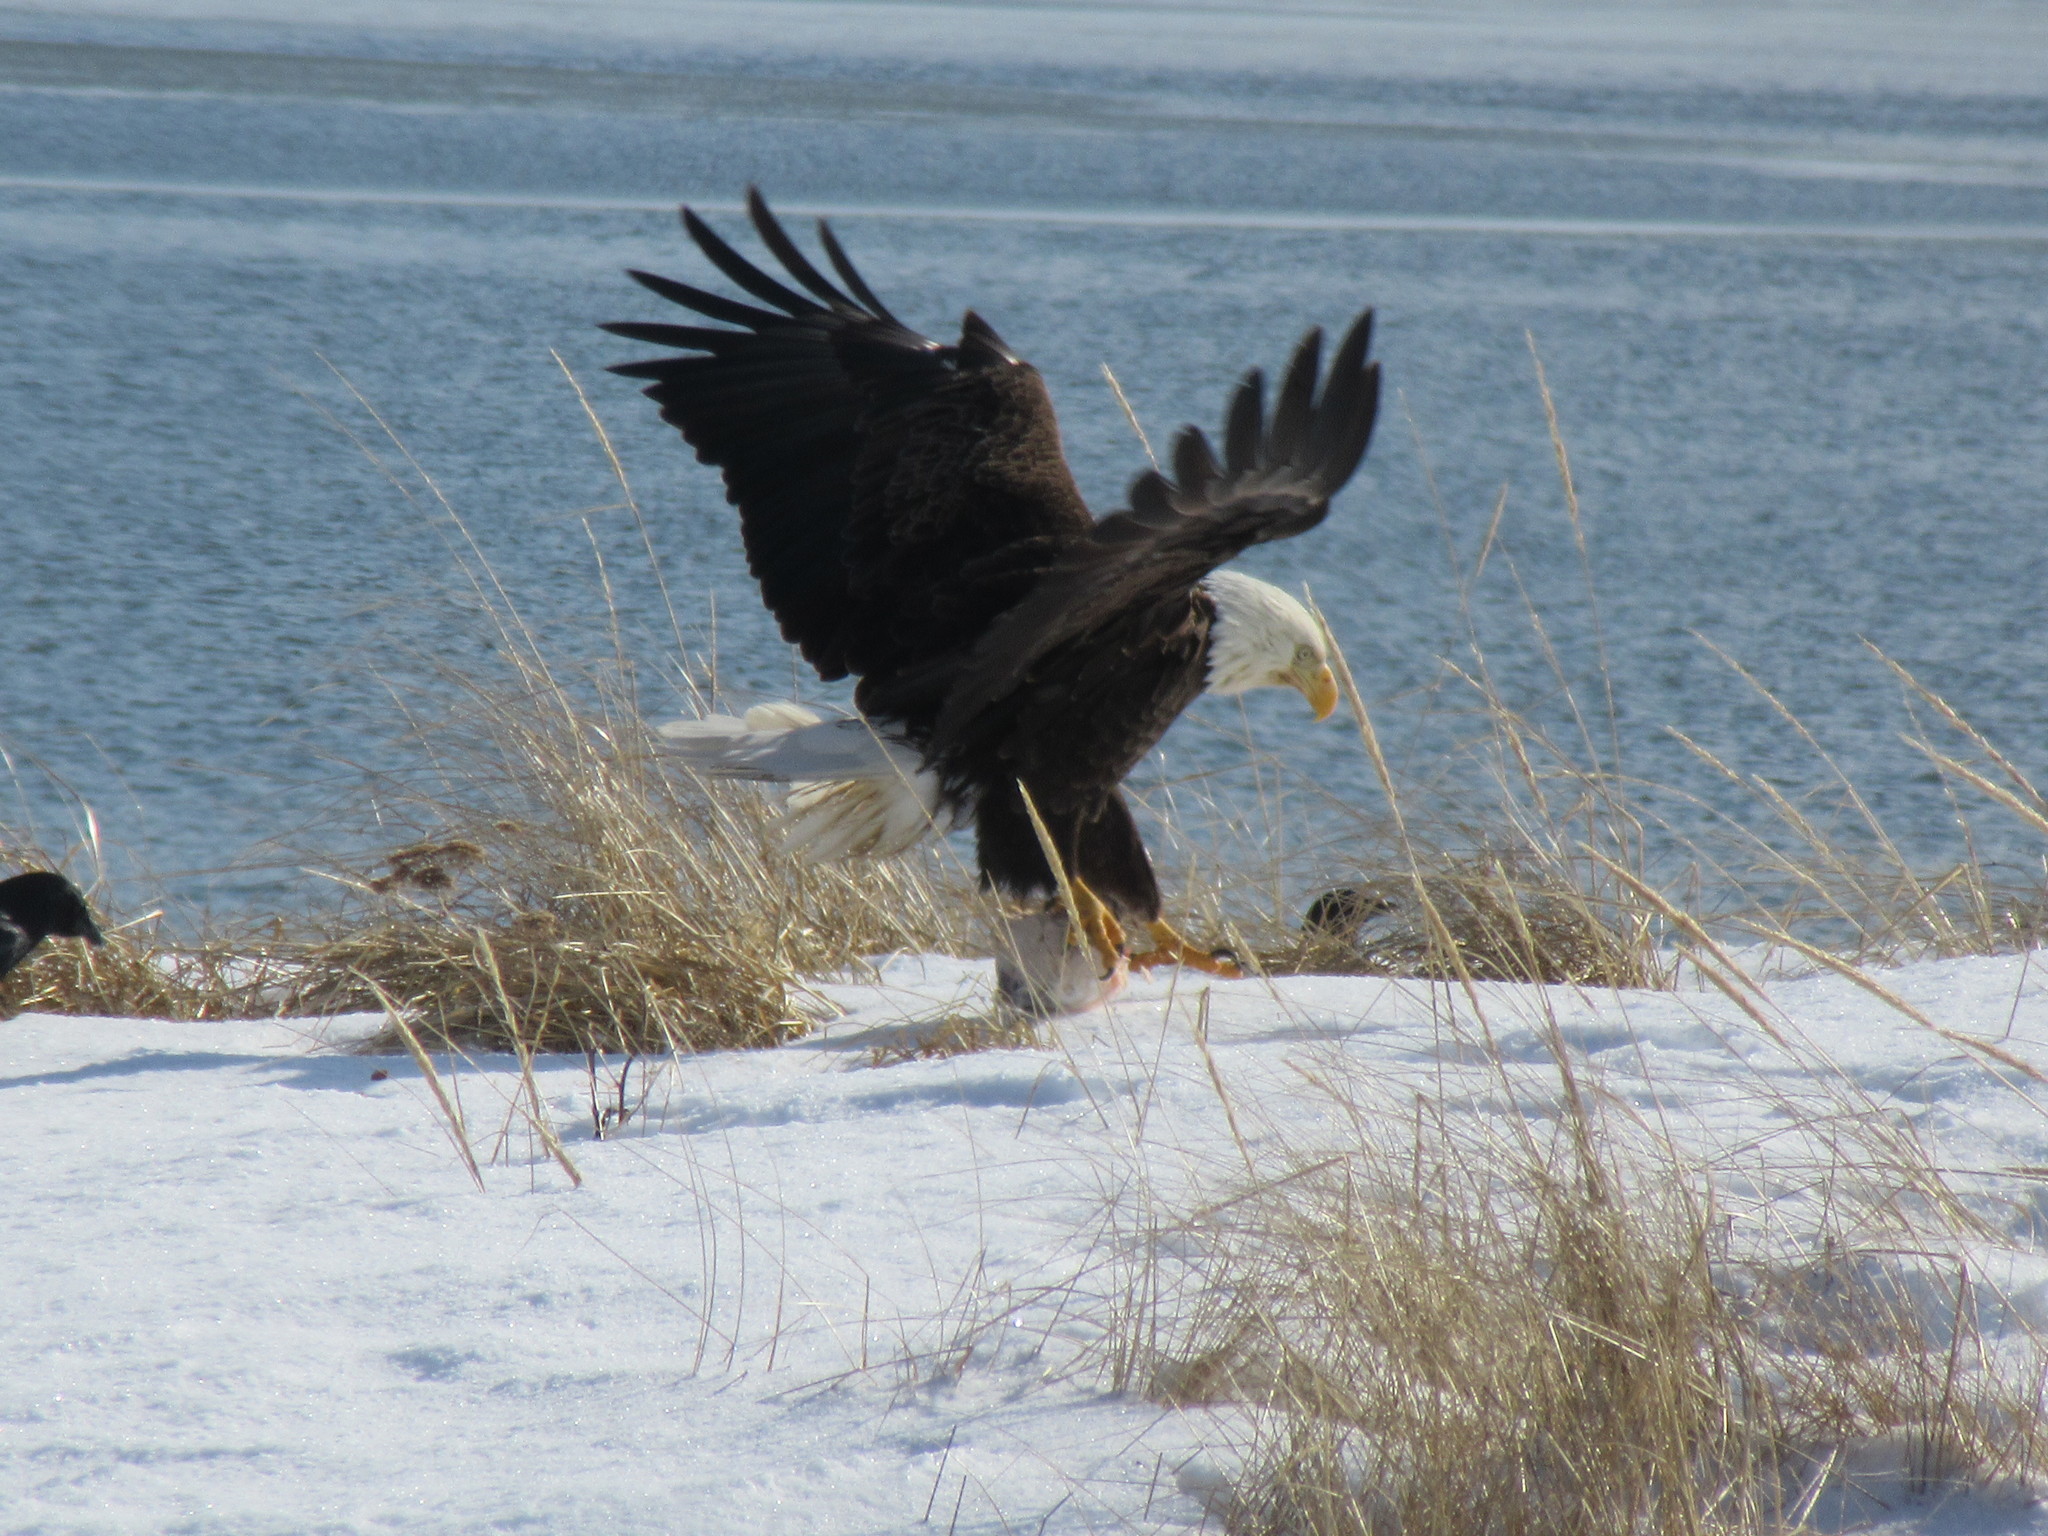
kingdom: Animalia
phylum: Chordata
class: Aves
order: Accipitriformes
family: Accipitridae
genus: Haliaeetus
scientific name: Haliaeetus leucocephalus
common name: Bald eagle
